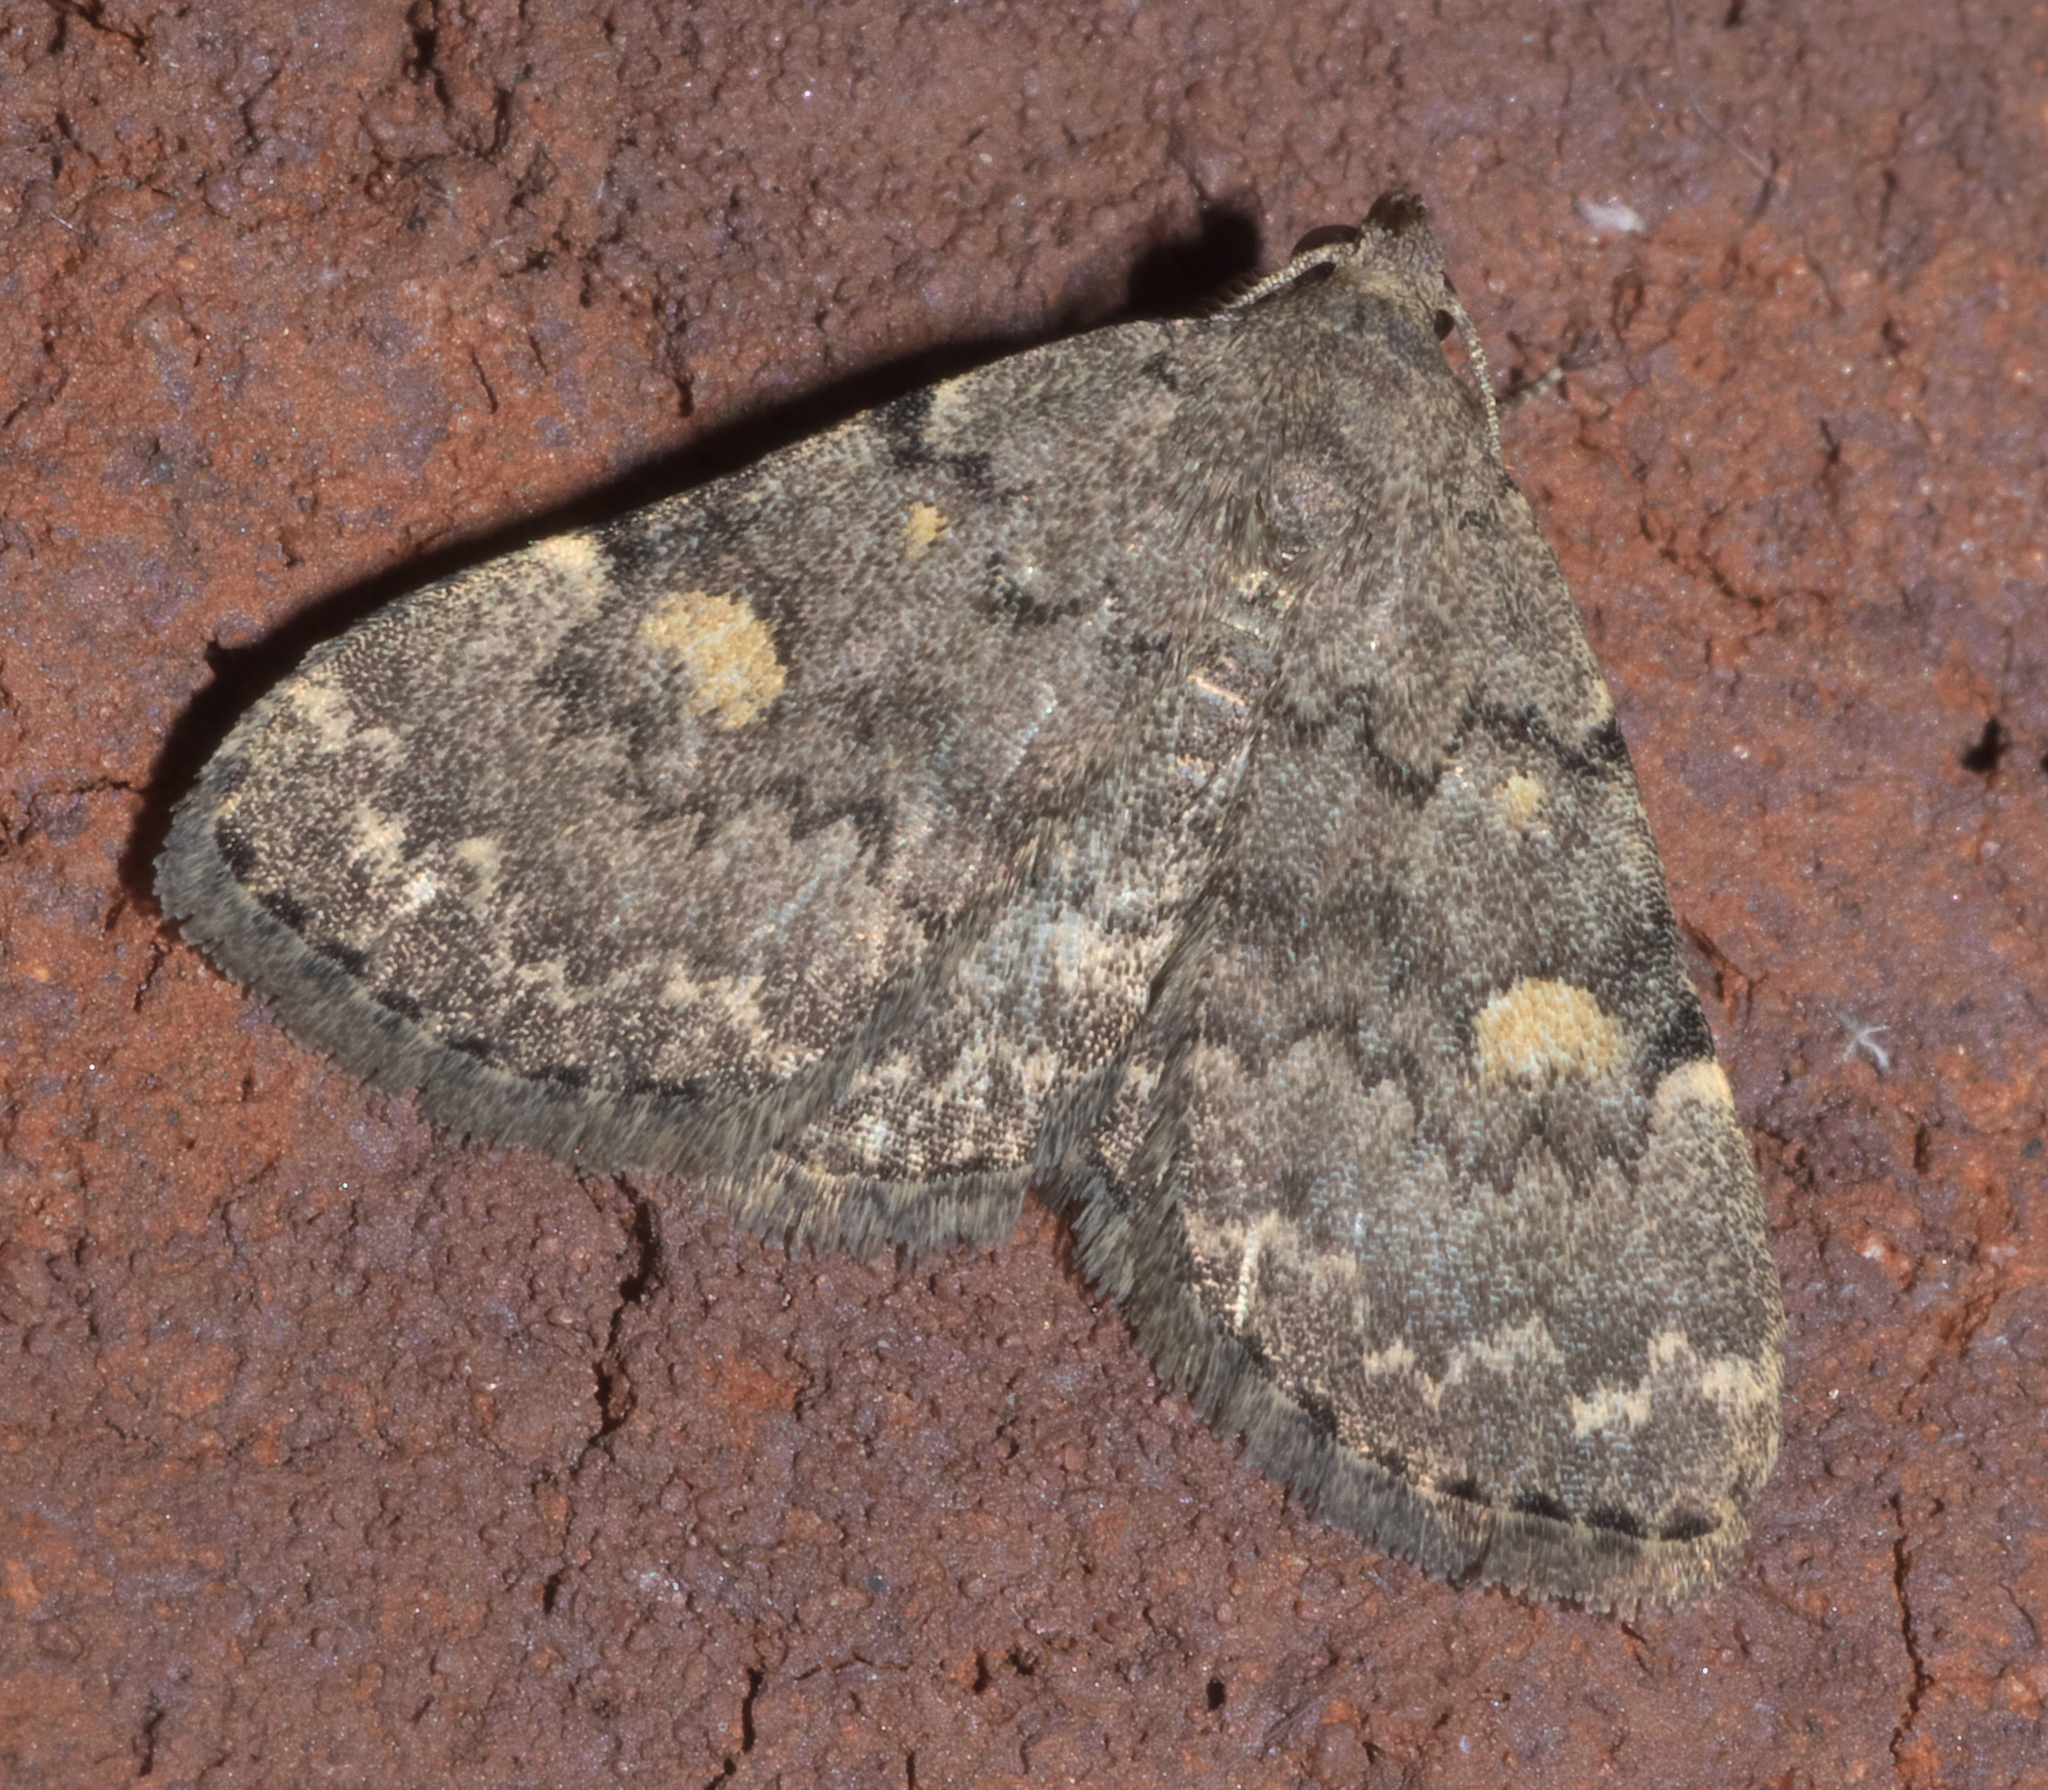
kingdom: Animalia
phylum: Arthropoda
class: Insecta
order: Lepidoptera
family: Erebidae
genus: Idia
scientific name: Idia aemula
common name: Common idia moth
